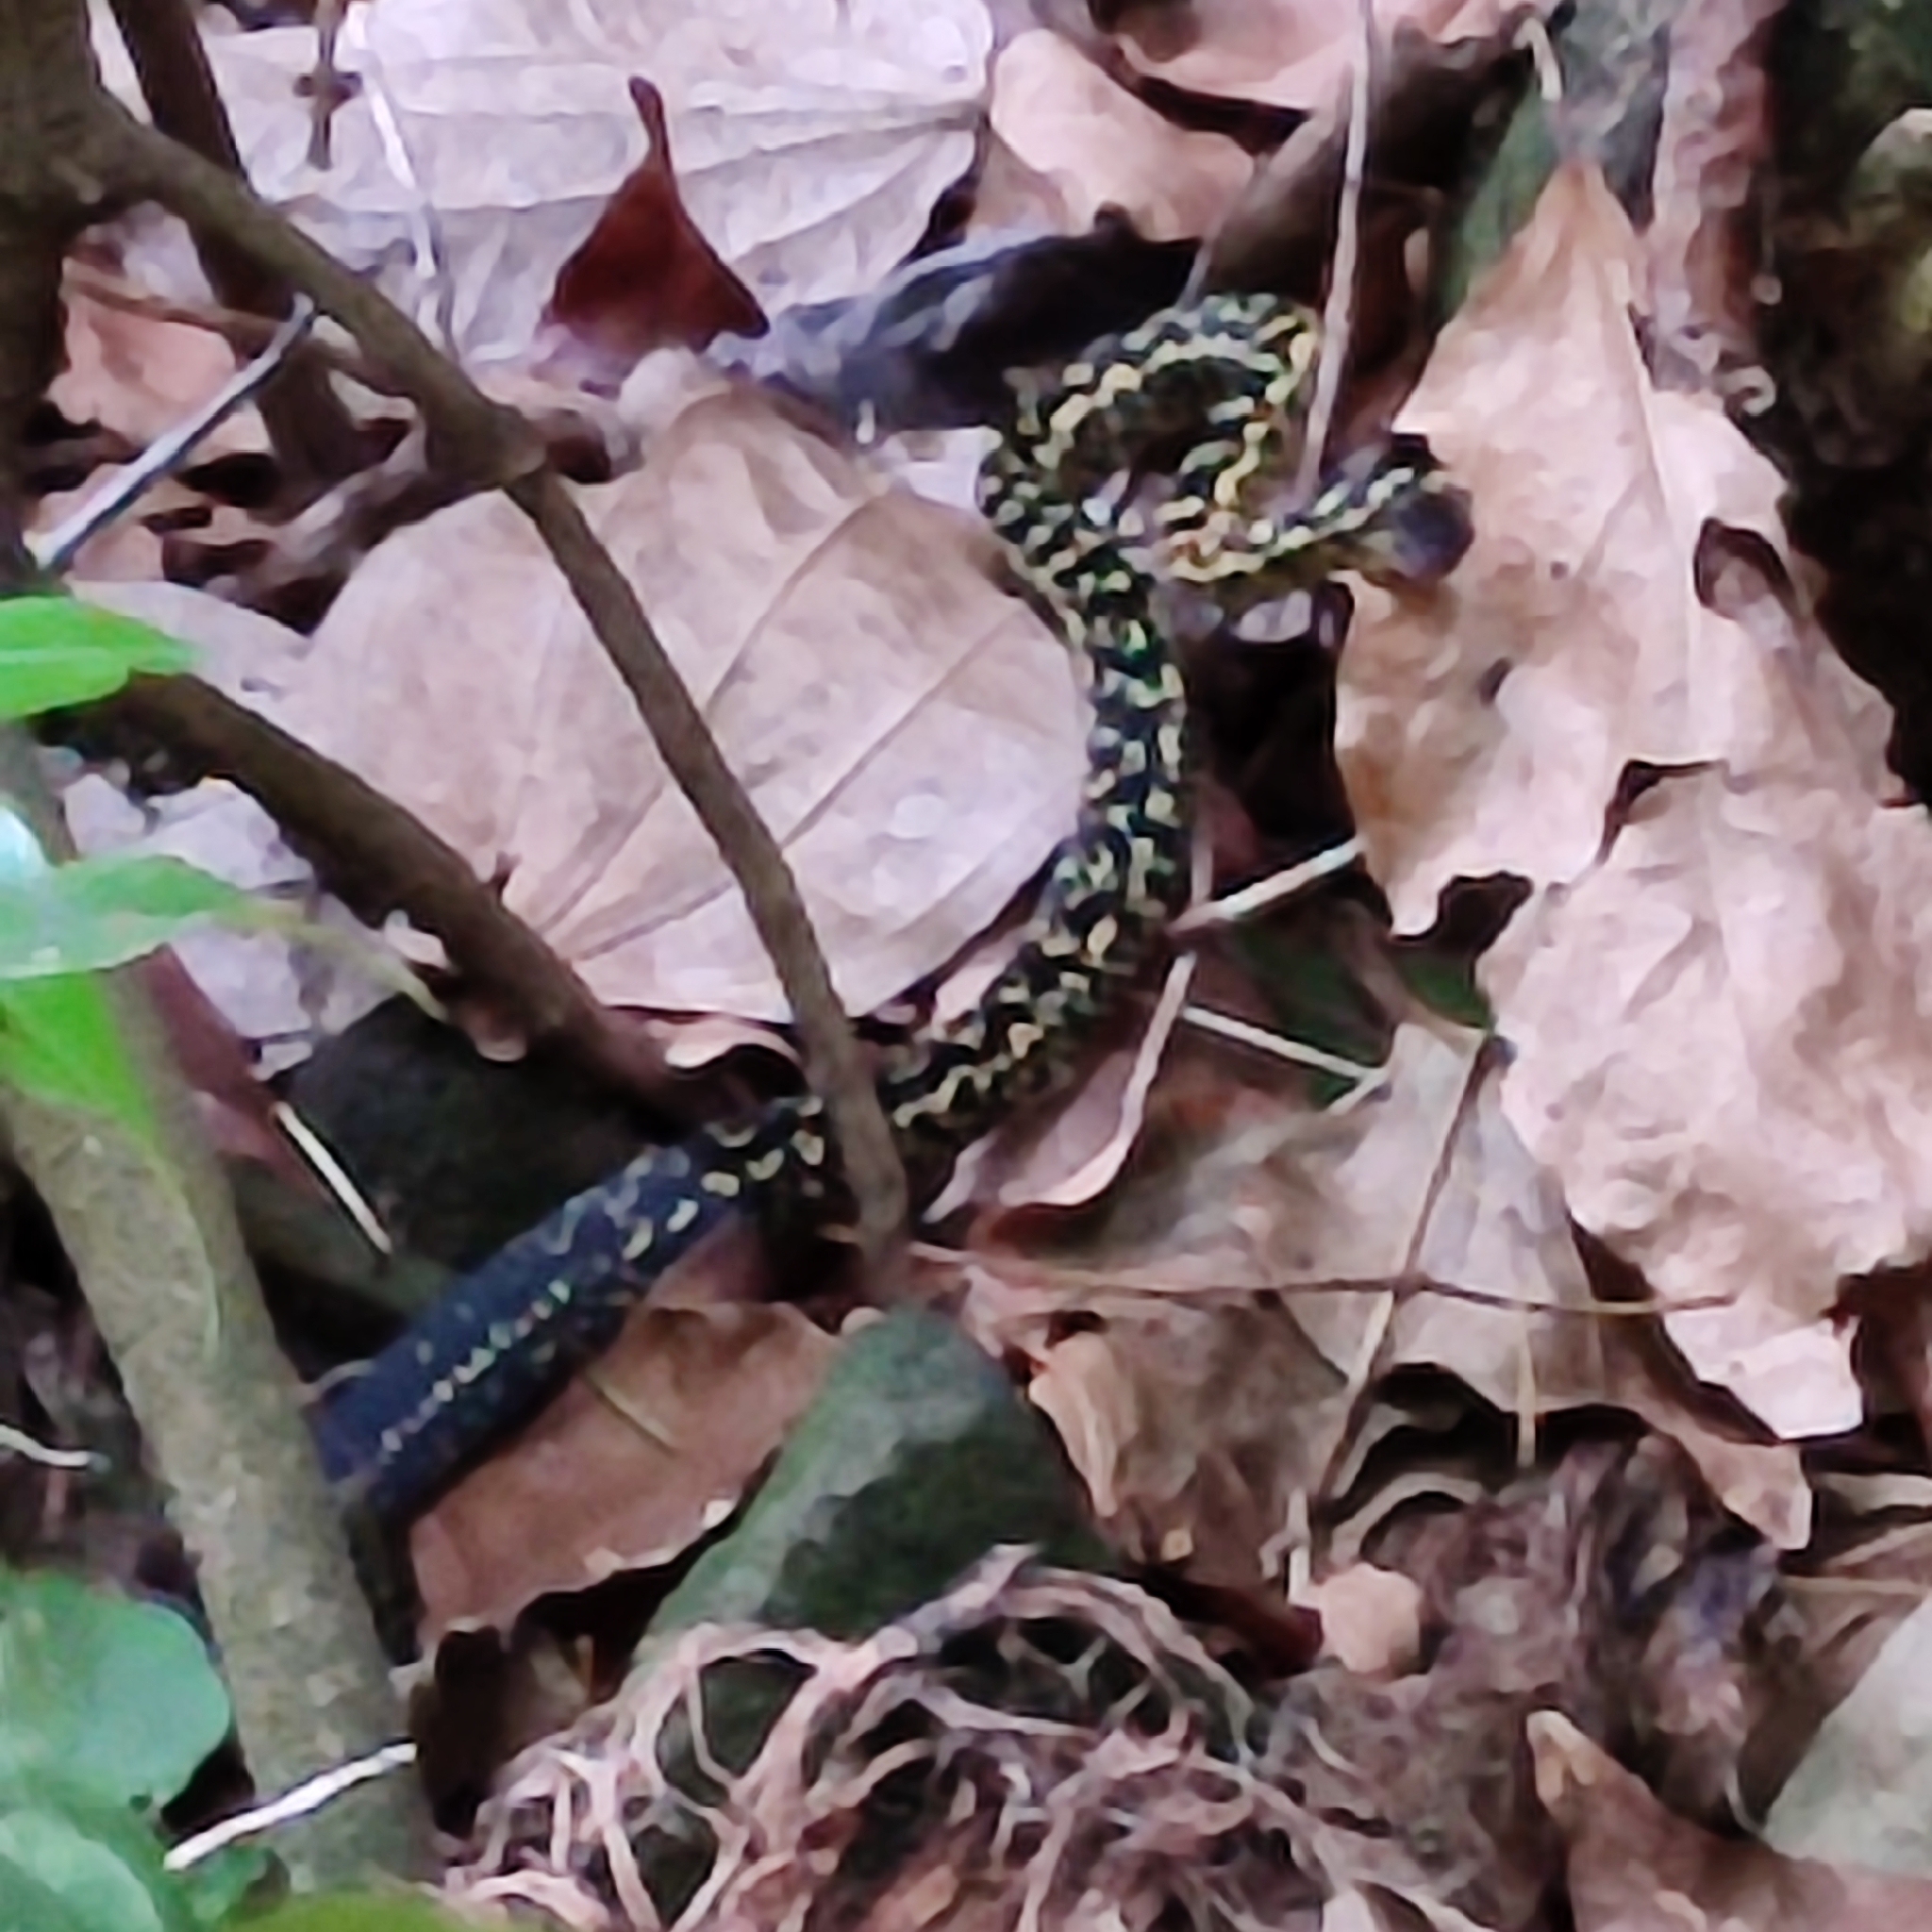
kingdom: Animalia
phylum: Chordata
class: Squamata
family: Colubridae
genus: Alsophis
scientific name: Alsophis manselli
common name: Montserrat racer
